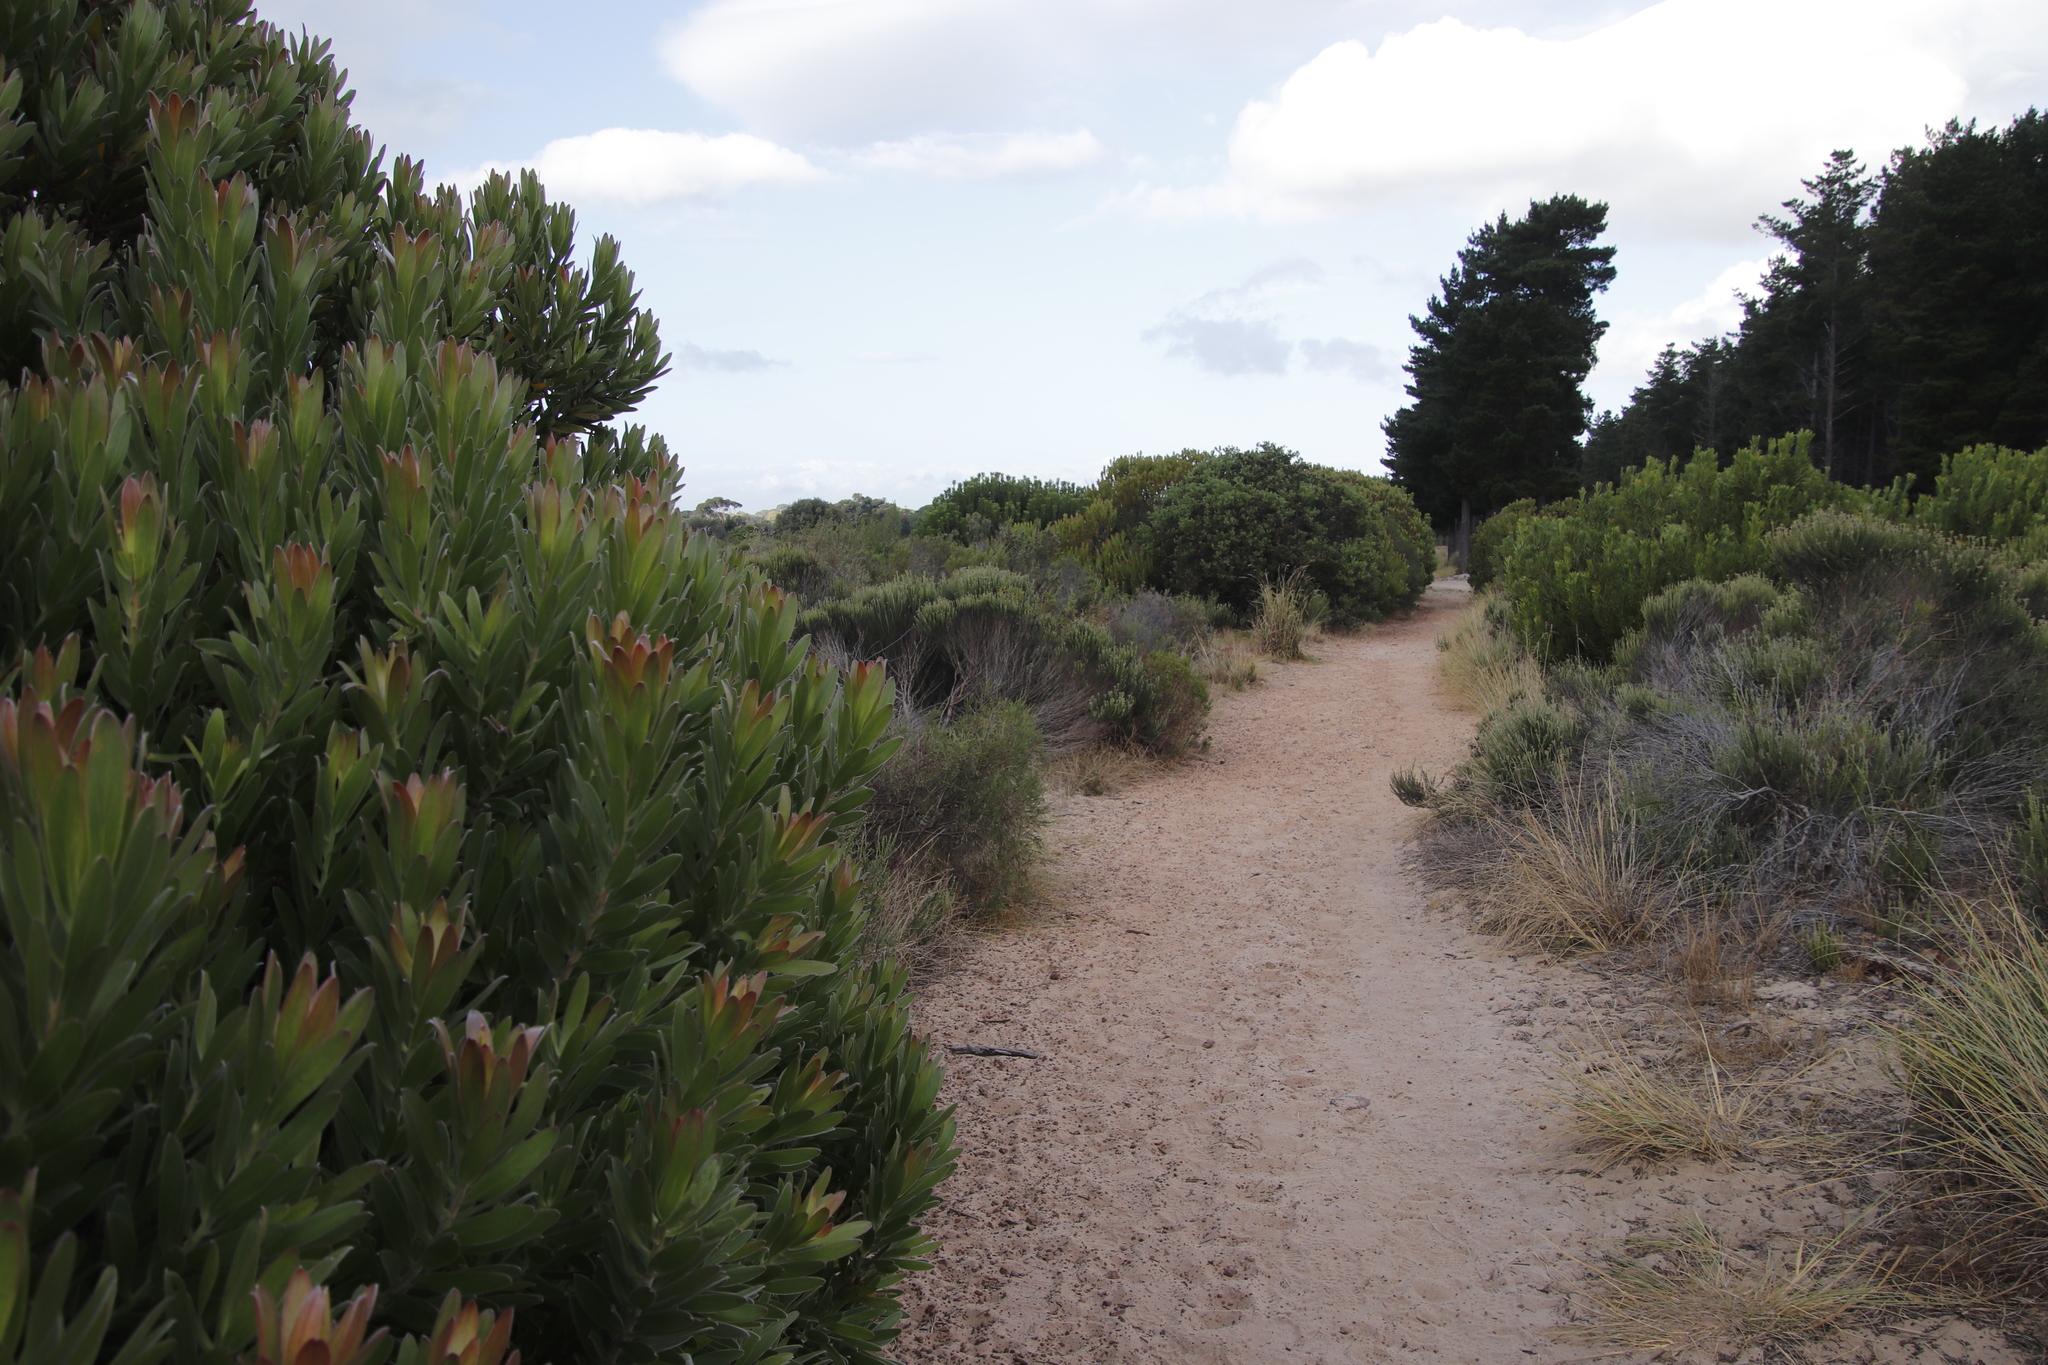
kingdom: Plantae
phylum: Tracheophyta
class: Magnoliopsida
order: Proteales
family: Proteaceae
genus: Leucadendron
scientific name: Leucadendron laureolum
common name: Golden sunshinebush
